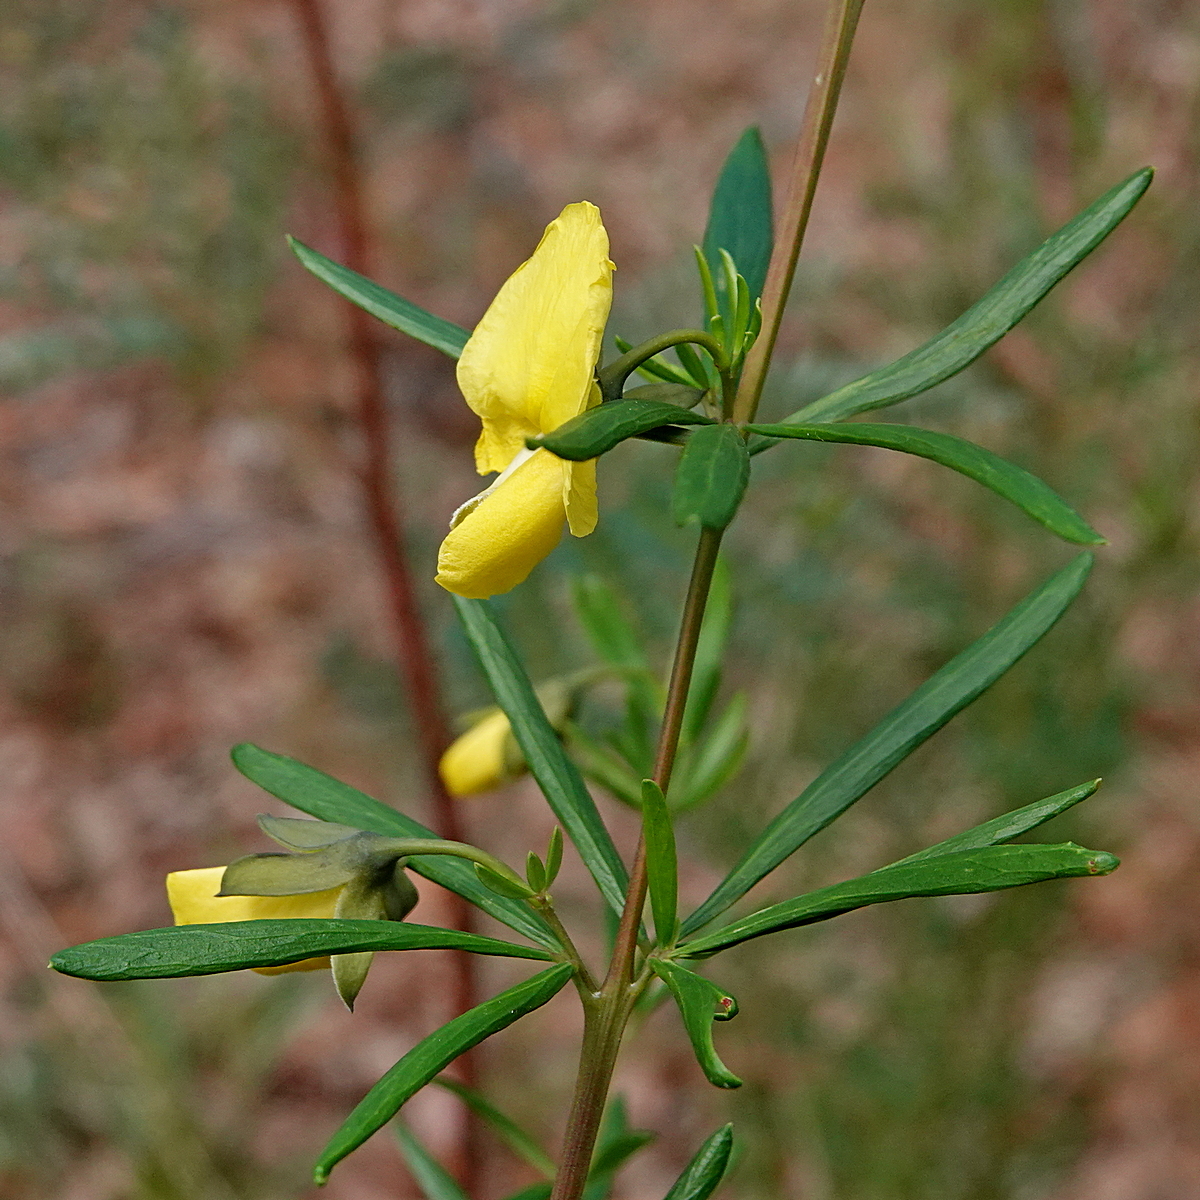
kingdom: Plantae
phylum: Tracheophyta
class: Magnoliopsida
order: Fabales
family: Fabaceae
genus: Gompholobium
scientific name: Gompholobium latifolium
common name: Broadleaf wedge-pea
